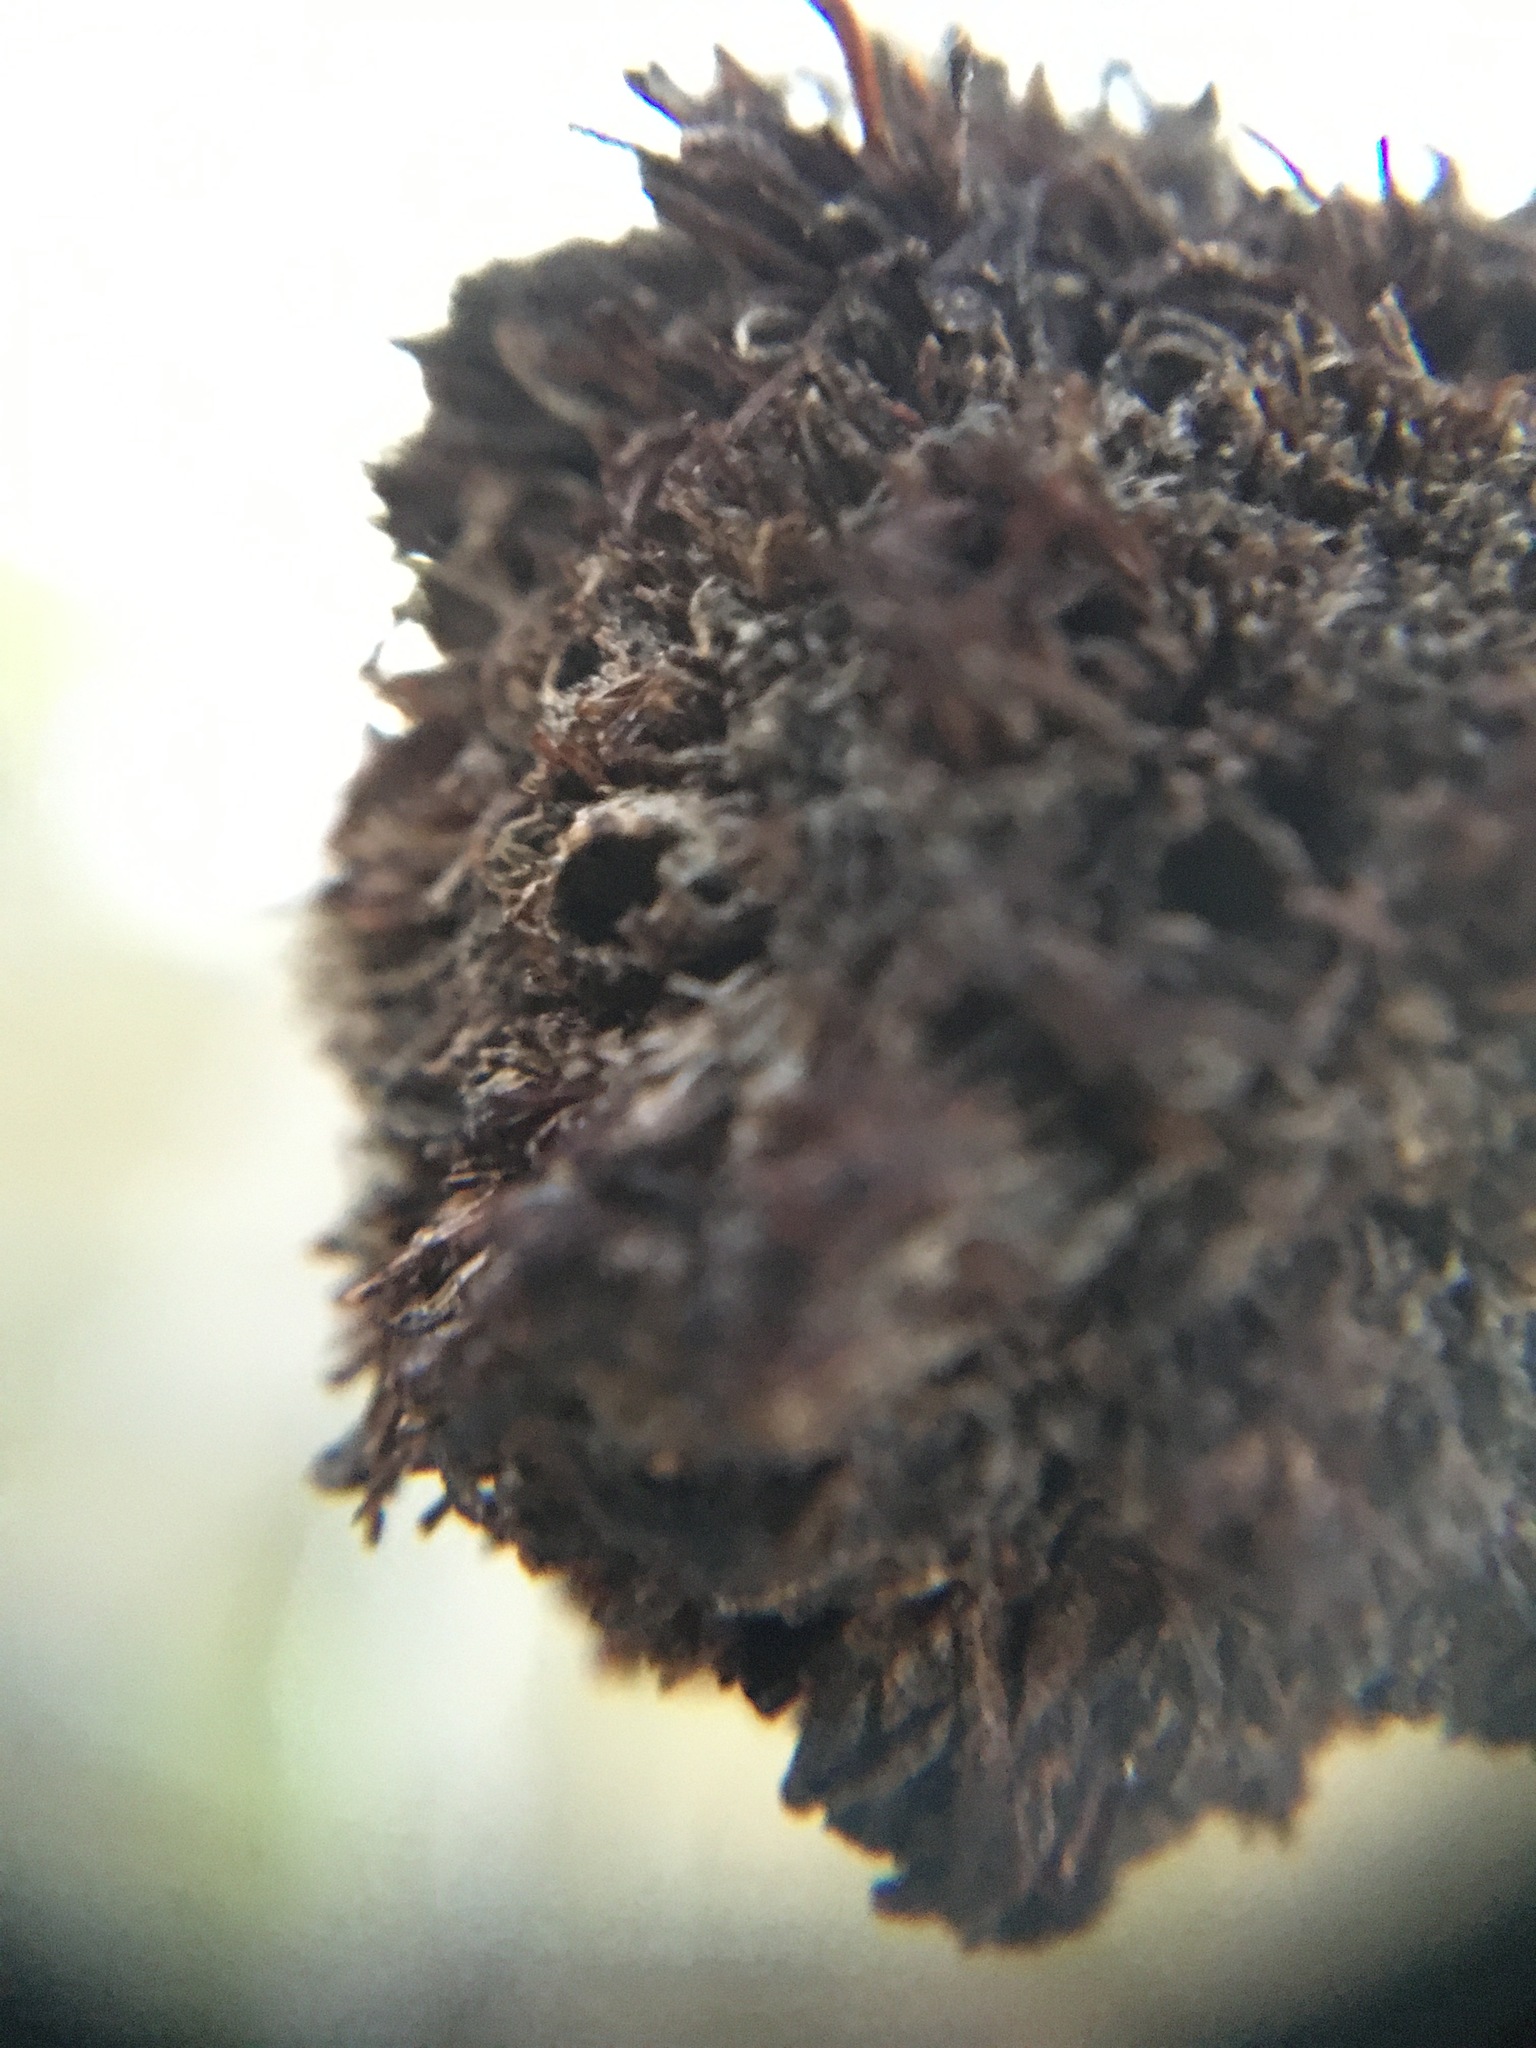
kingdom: Animalia
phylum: Arthropoda
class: Insecta
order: Diptera
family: Cecidomyiidae
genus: Asphondylia
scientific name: Asphondylia auripila
